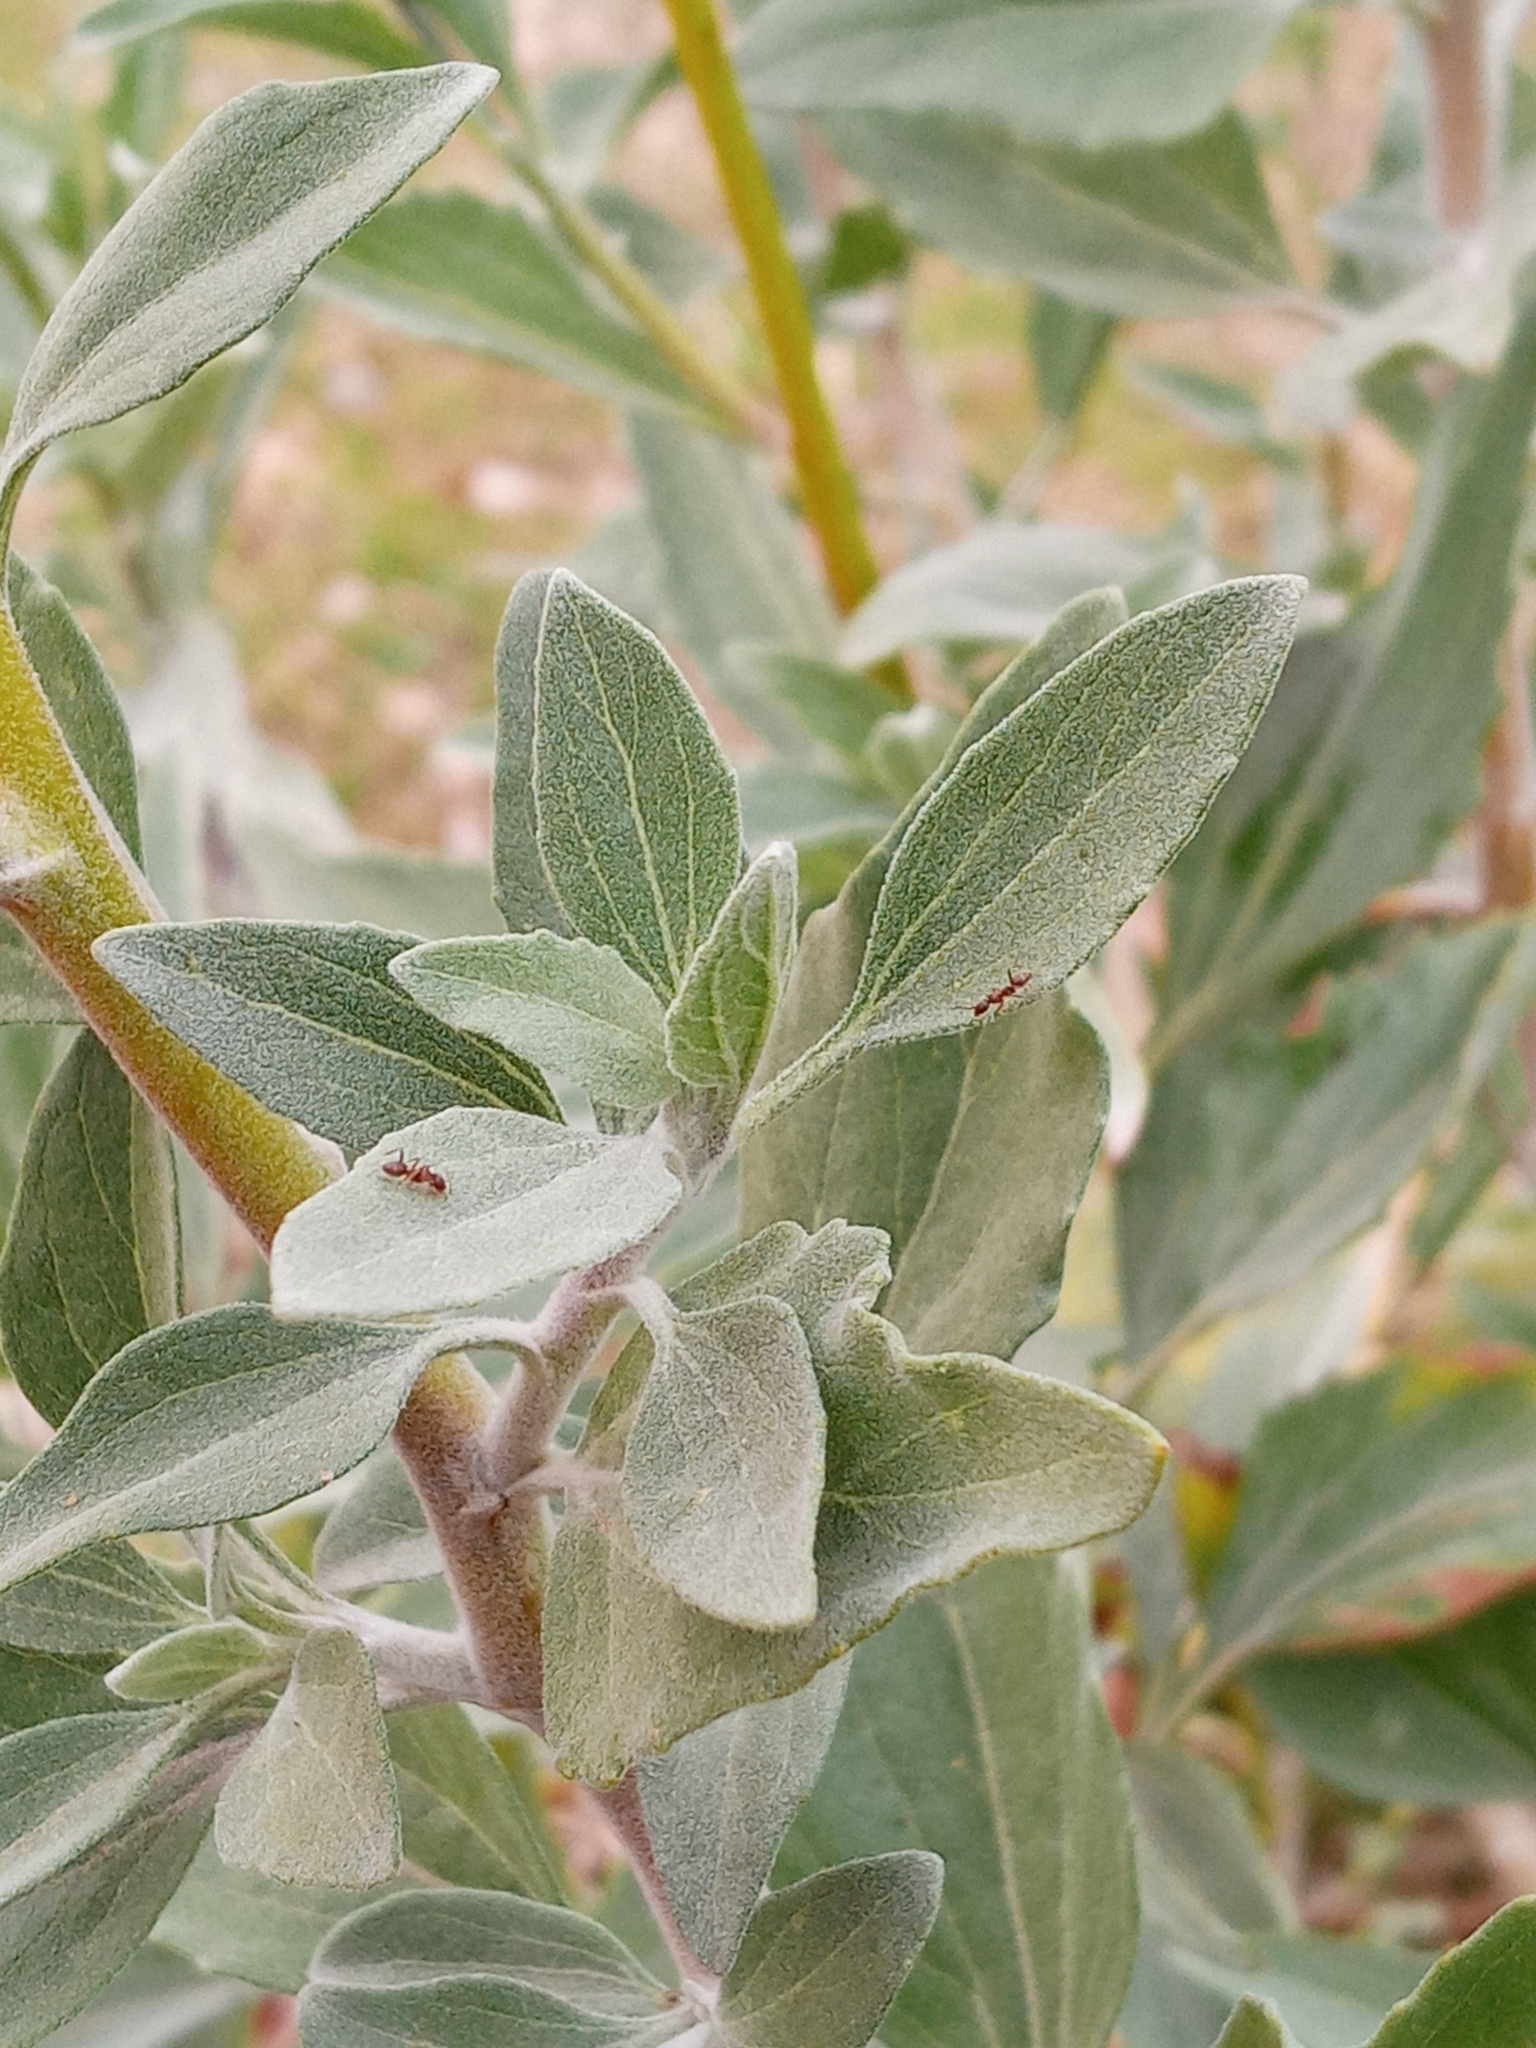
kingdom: Plantae
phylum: Tracheophyta
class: Magnoliopsida
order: Asterales
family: Asteraceae
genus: Encelia
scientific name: Encelia
